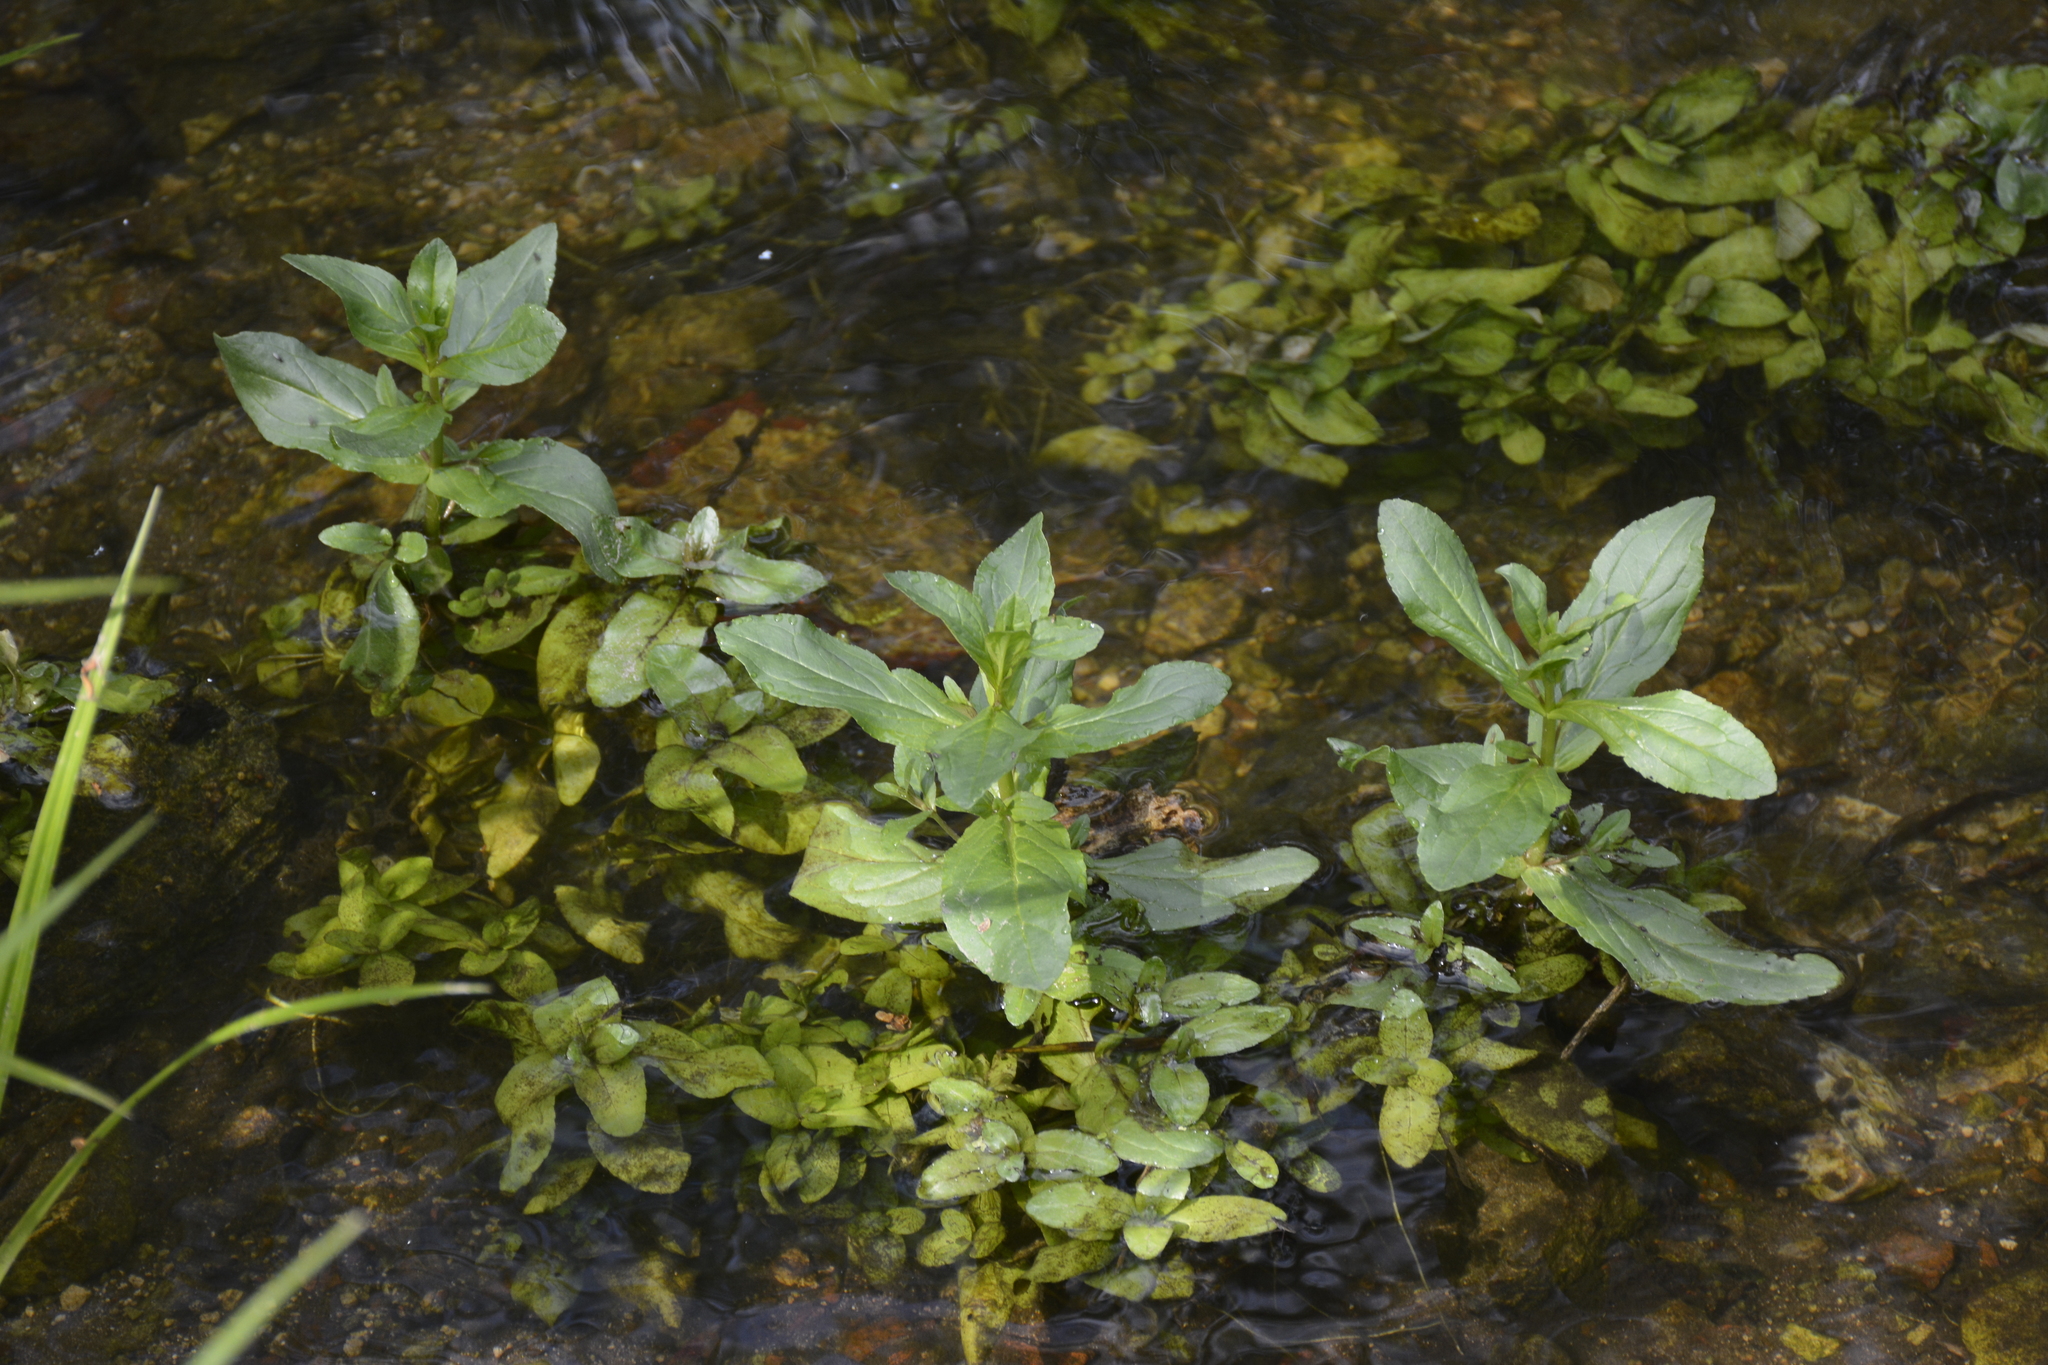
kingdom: Plantae
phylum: Tracheophyta
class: Magnoliopsida
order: Lamiales
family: Plantaginaceae
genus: Veronica
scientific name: Veronica anagallis-aquatica
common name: Water speedwell
